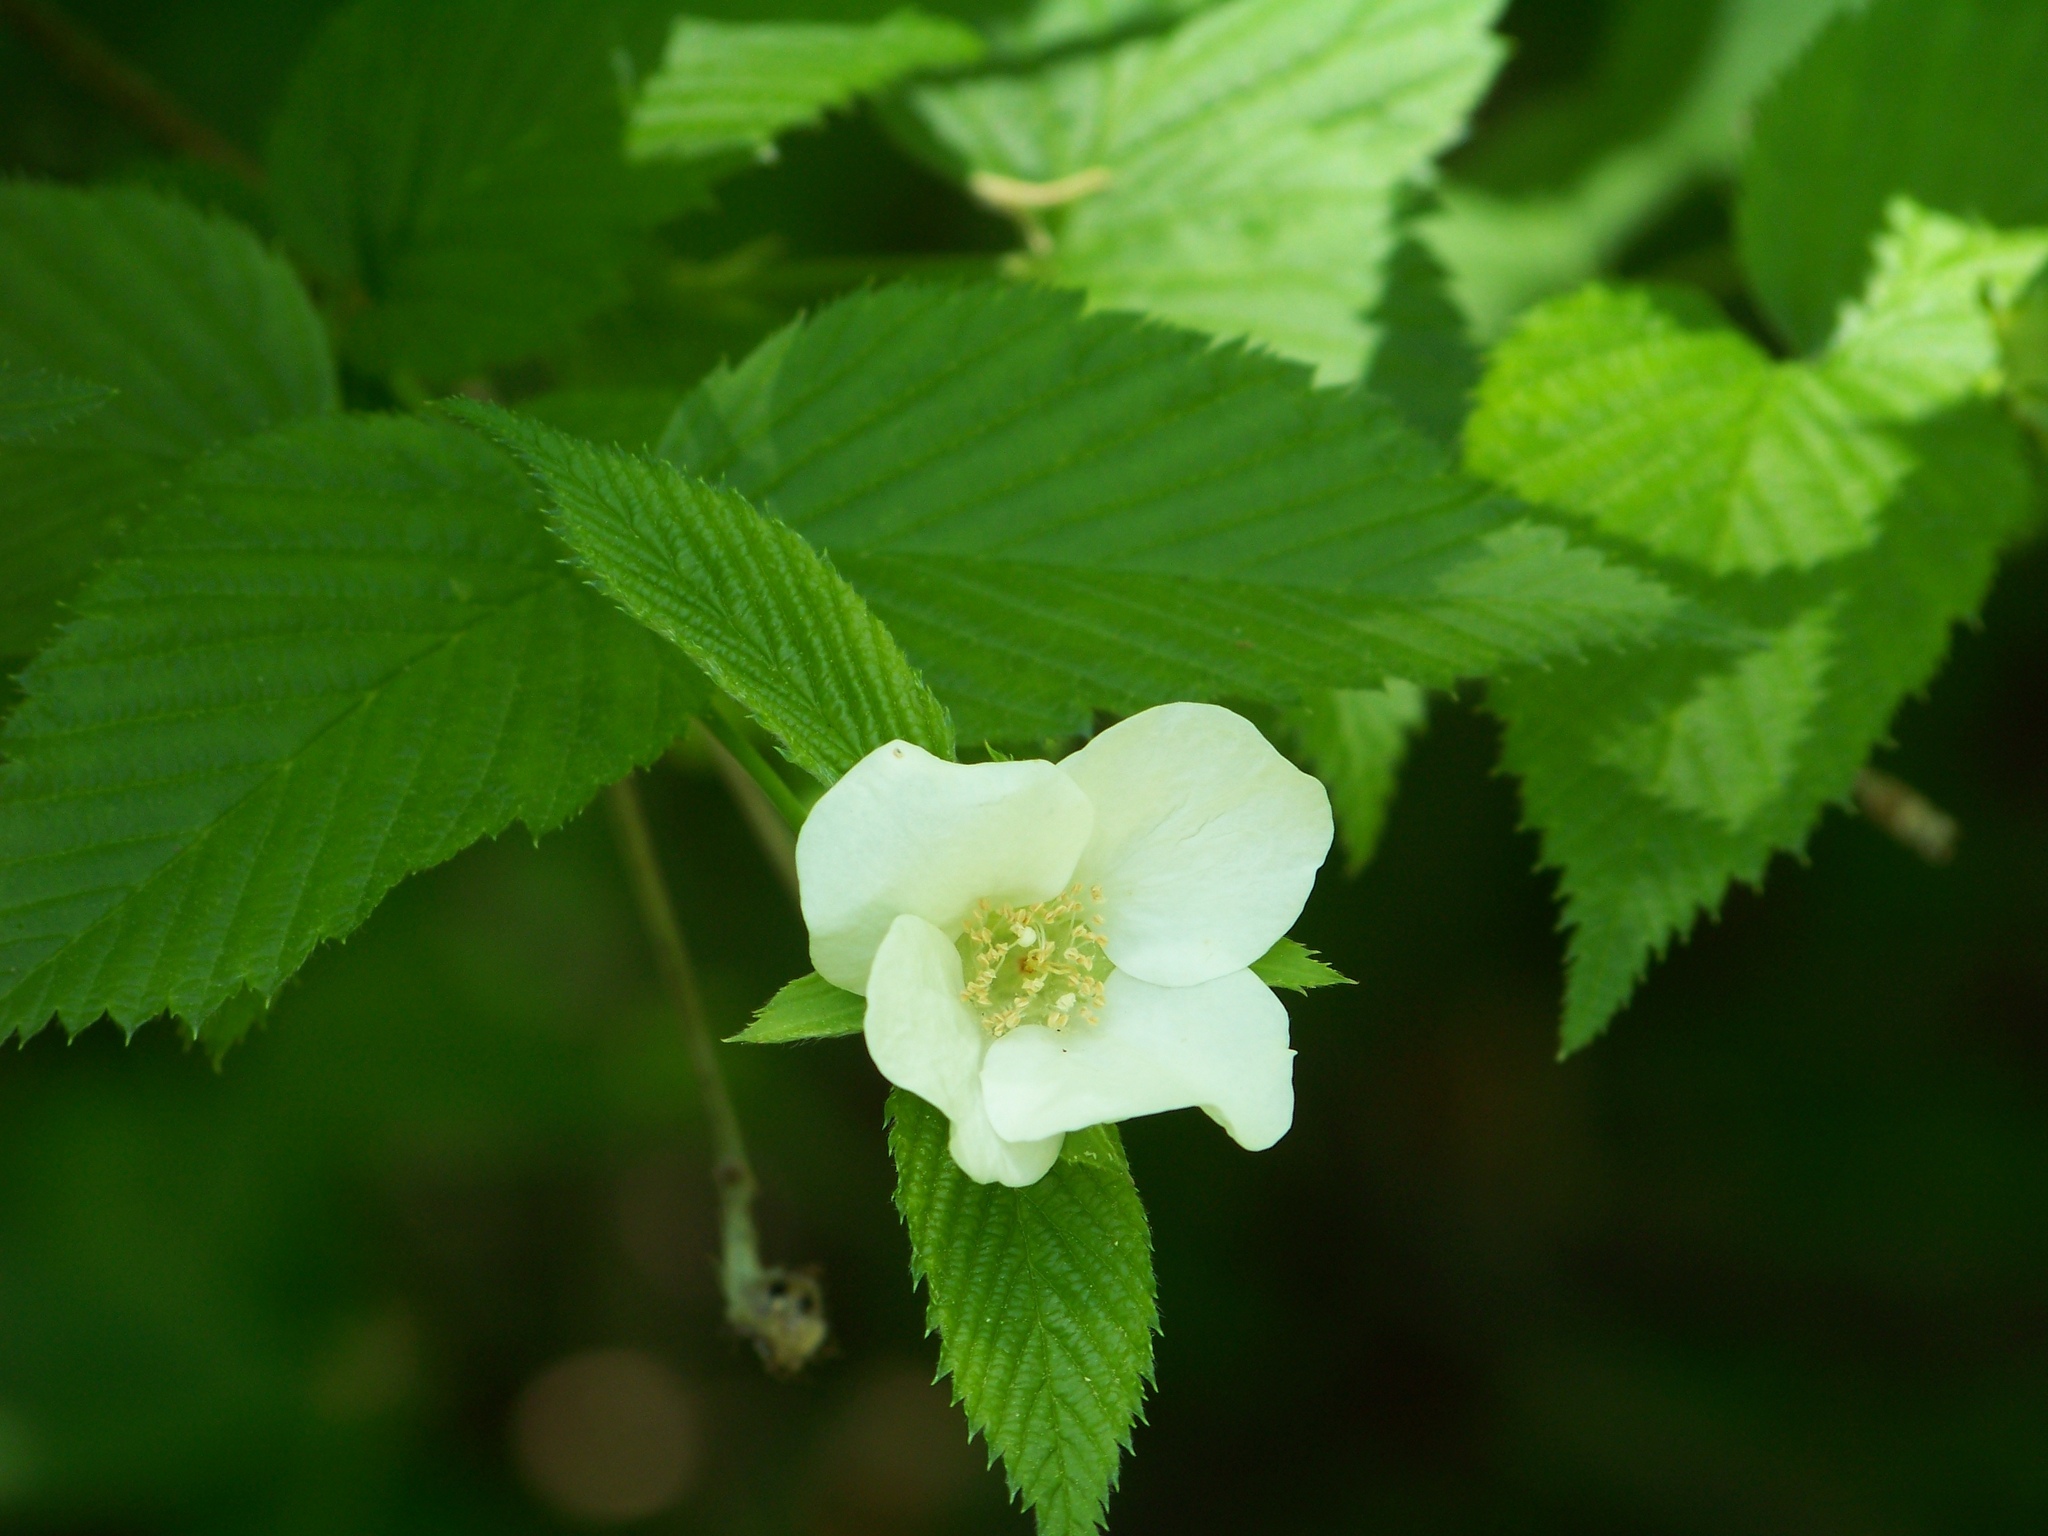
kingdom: Plantae
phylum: Tracheophyta
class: Magnoliopsida
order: Rosales
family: Rosaceae
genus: Rhodotypos
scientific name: Rhodotypos scandens
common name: Jetbead
